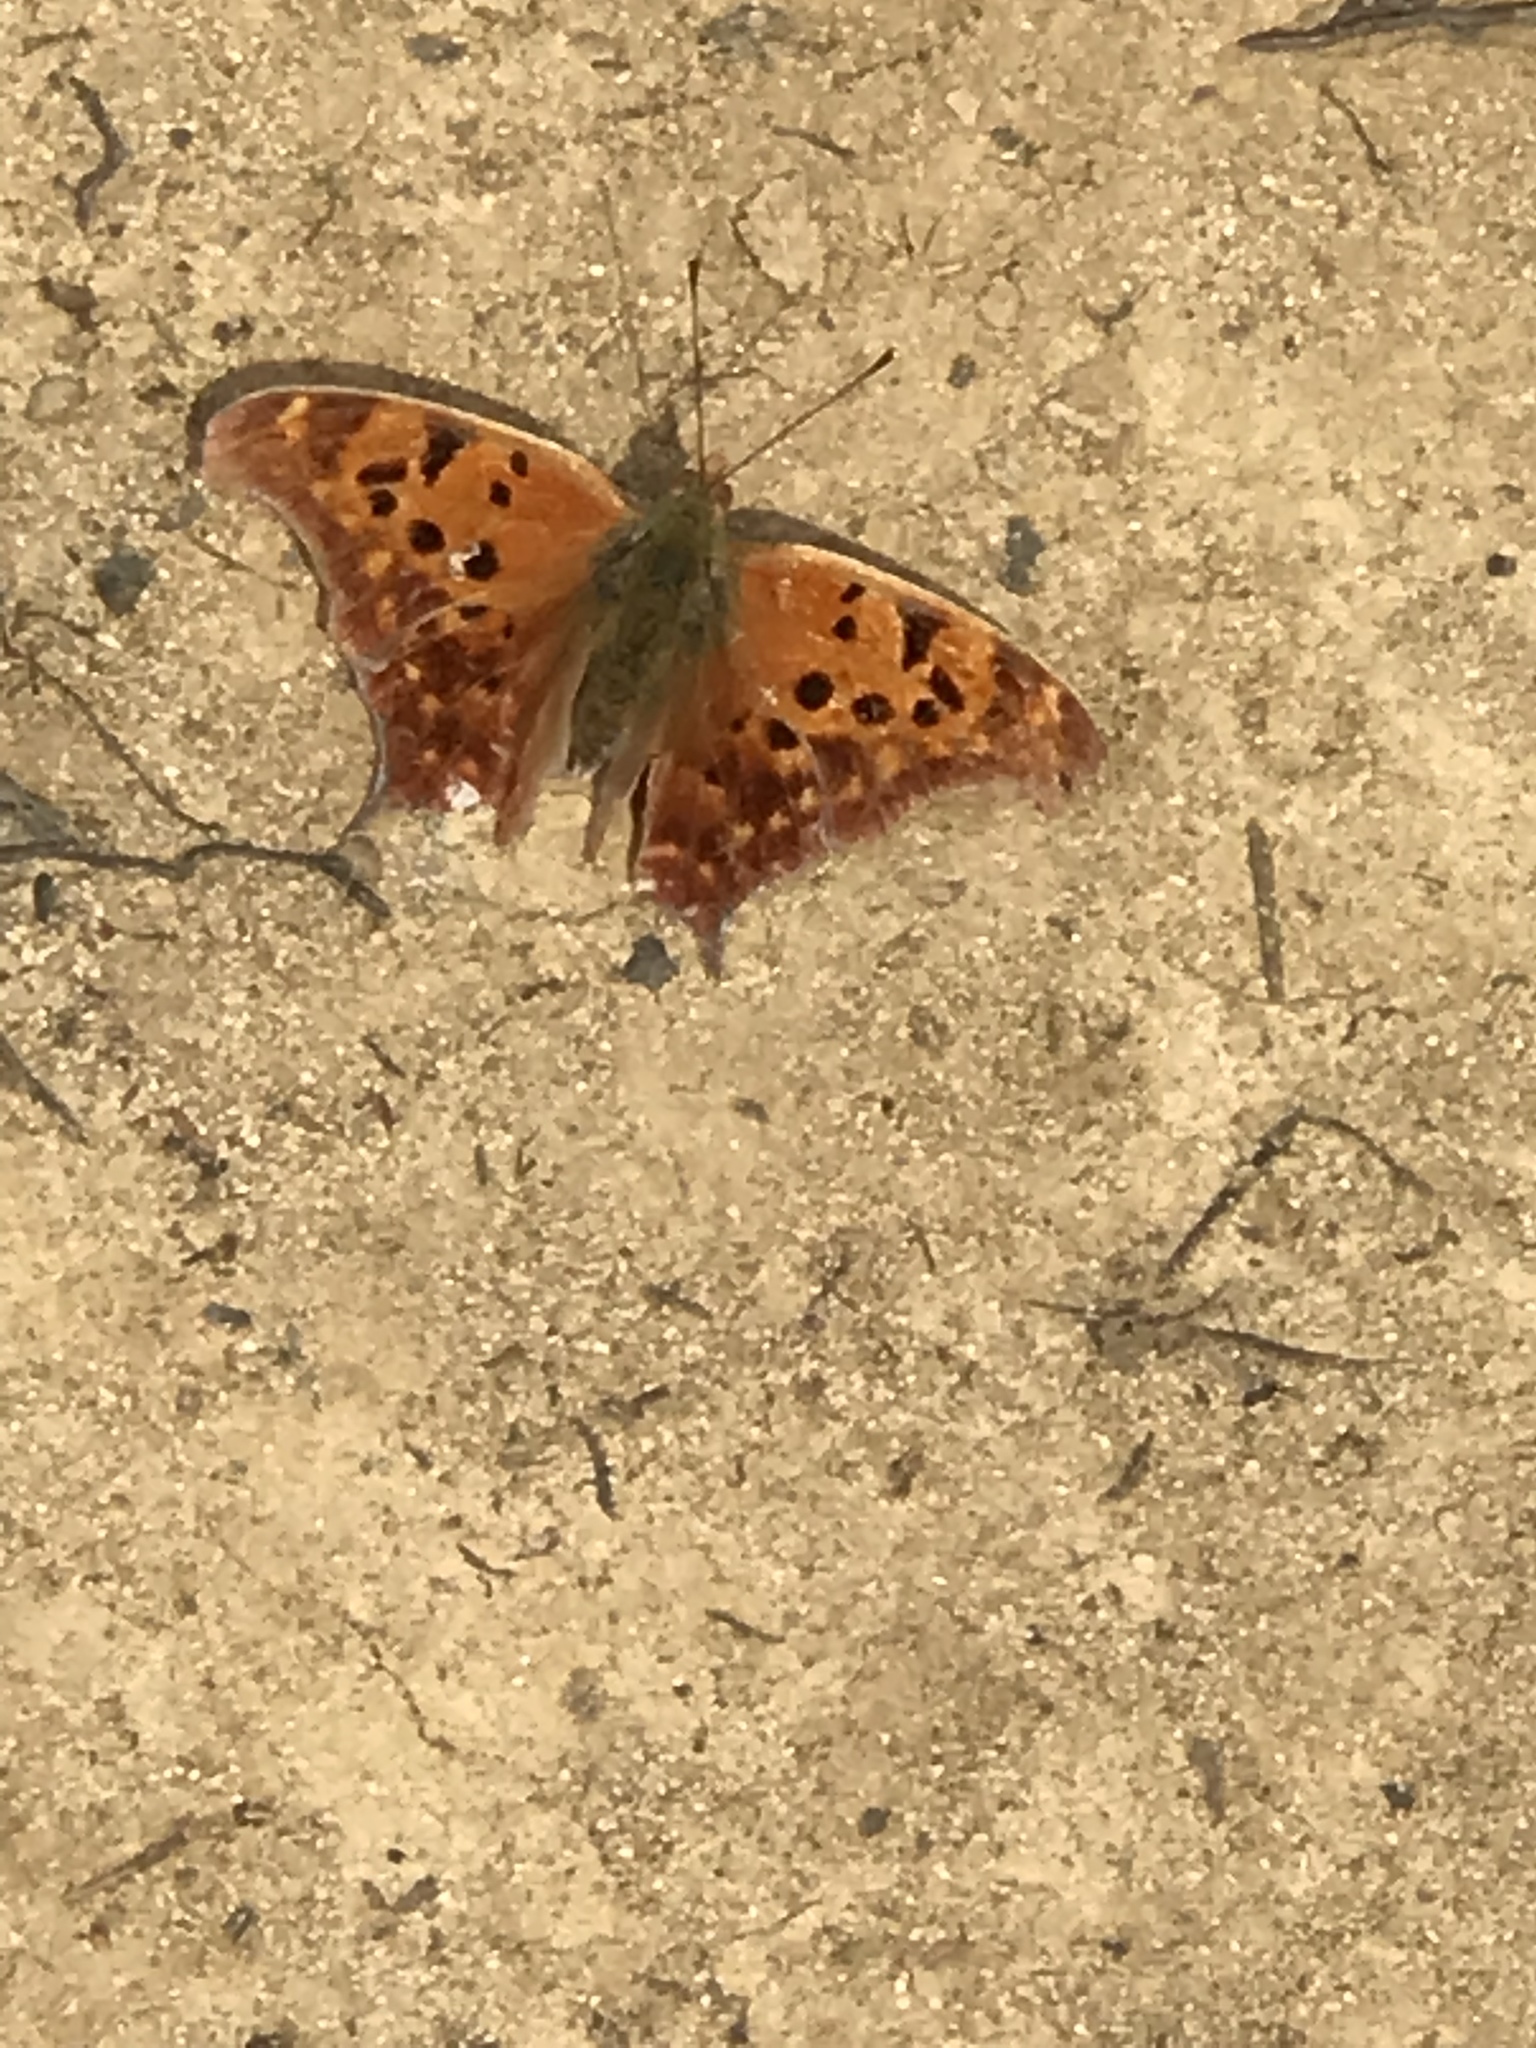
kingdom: Animalia
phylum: Arthropoda
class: Insecta
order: Lepidoptera
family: Nymphalidae
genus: Polygonia
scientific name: Polygonia interrogationis
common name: Question mark
